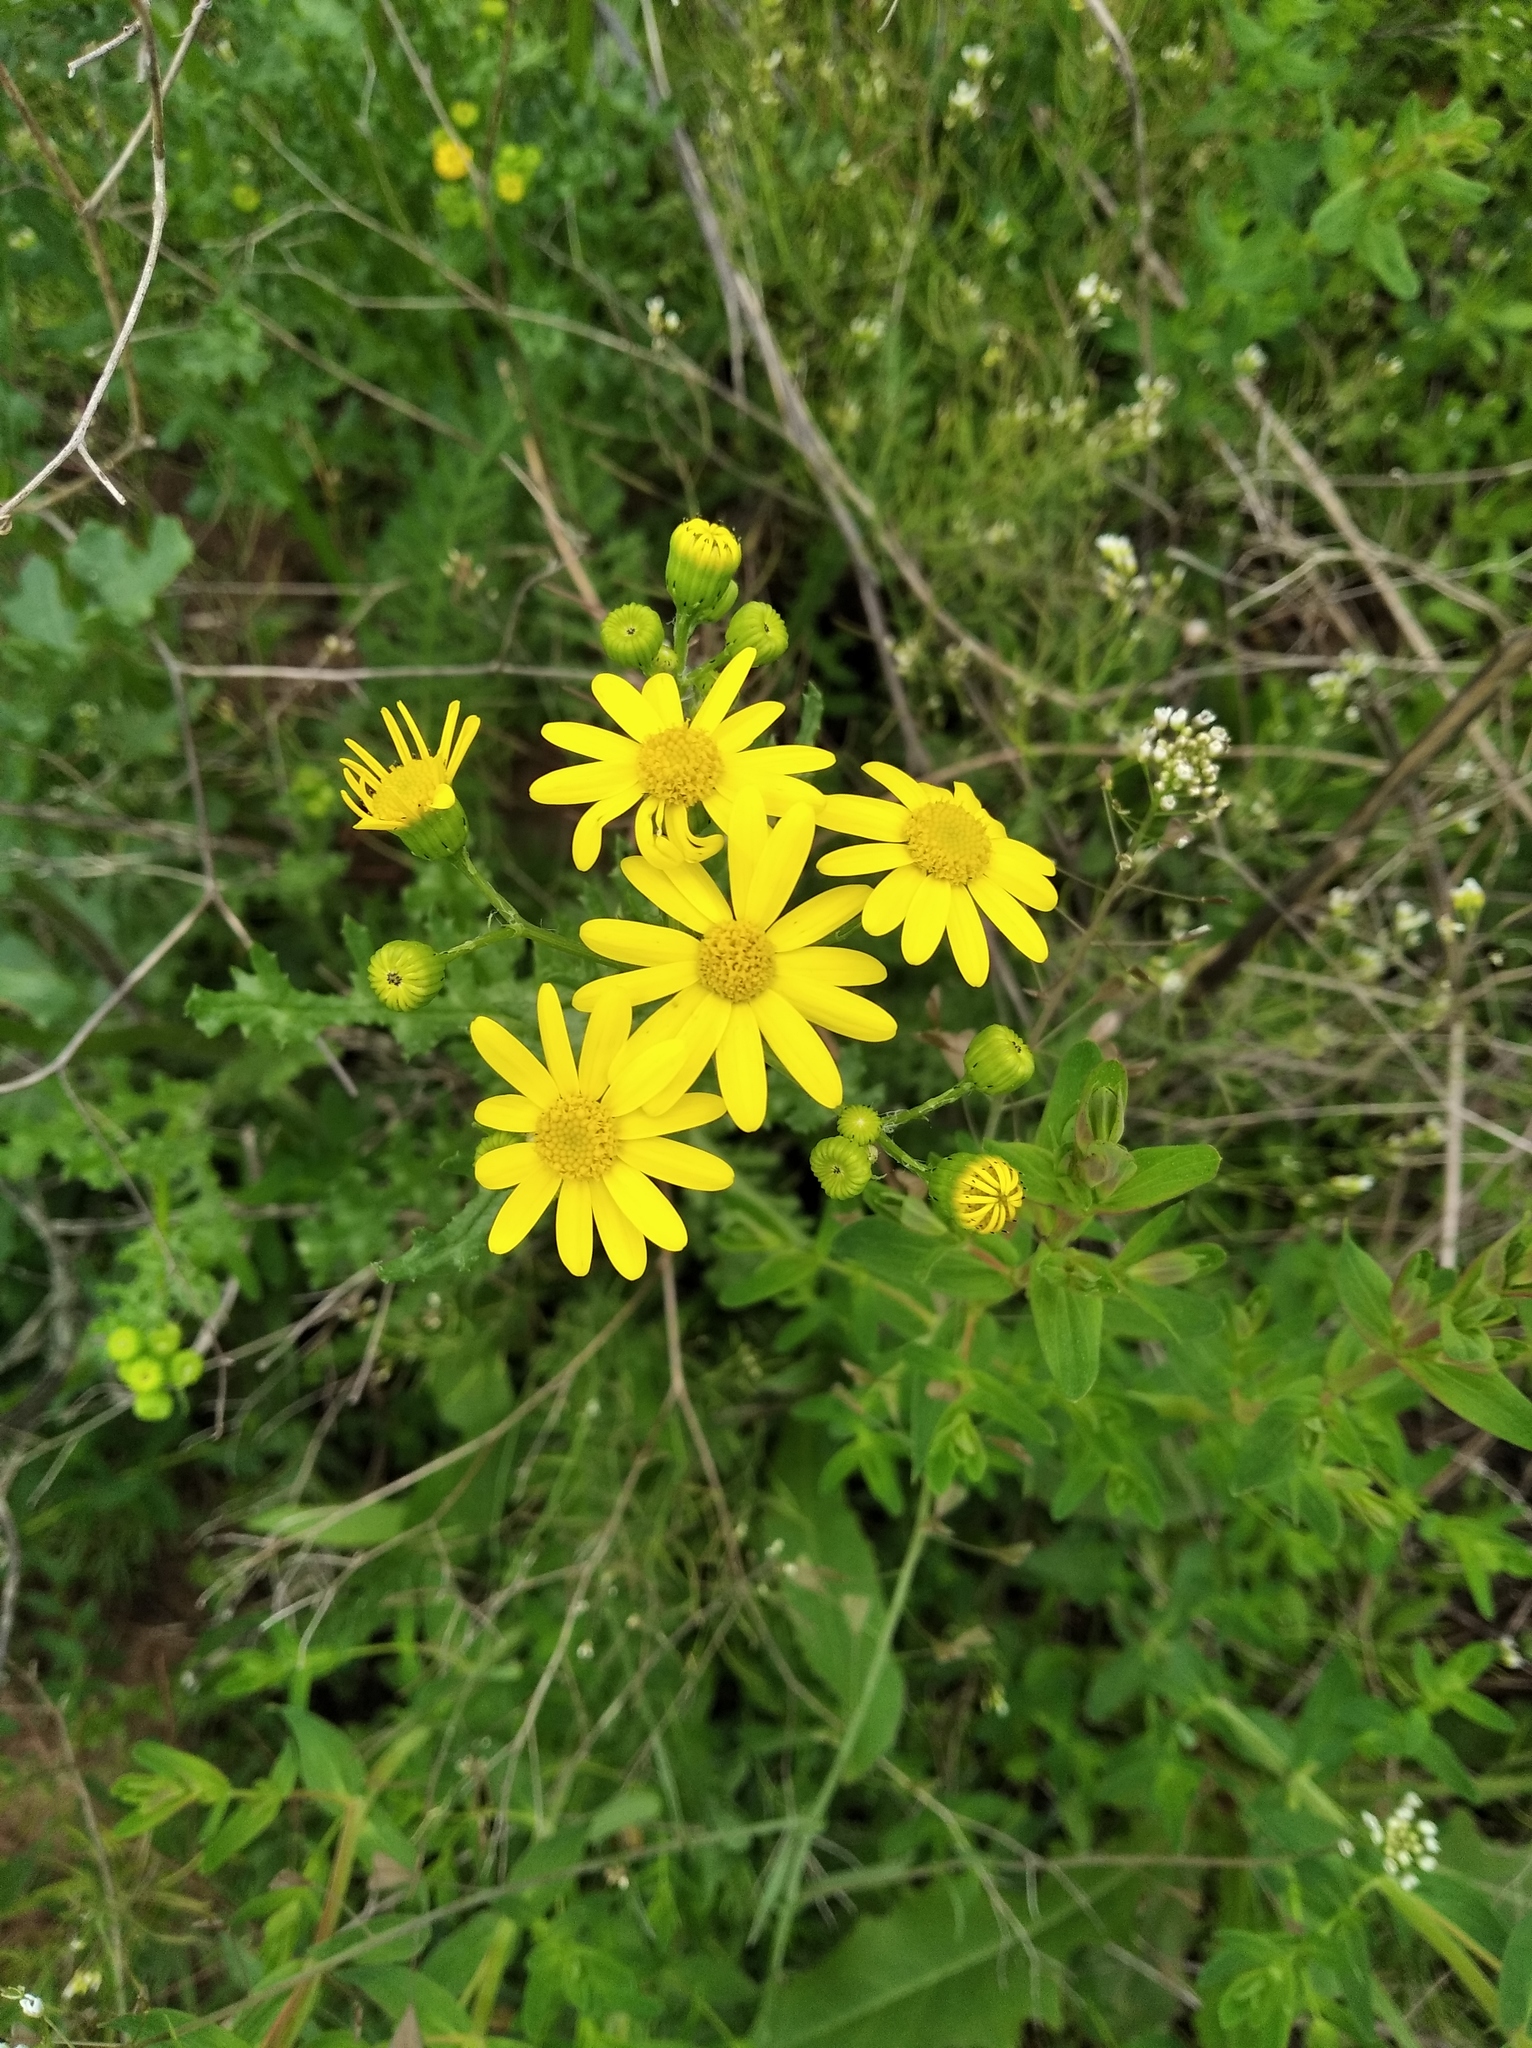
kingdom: Plantae
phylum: Tracheophyta
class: Magnoliopsida
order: Asterales
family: Asteraceae
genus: Senecio
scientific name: Senecio vernalis
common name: Eastern groundsel
